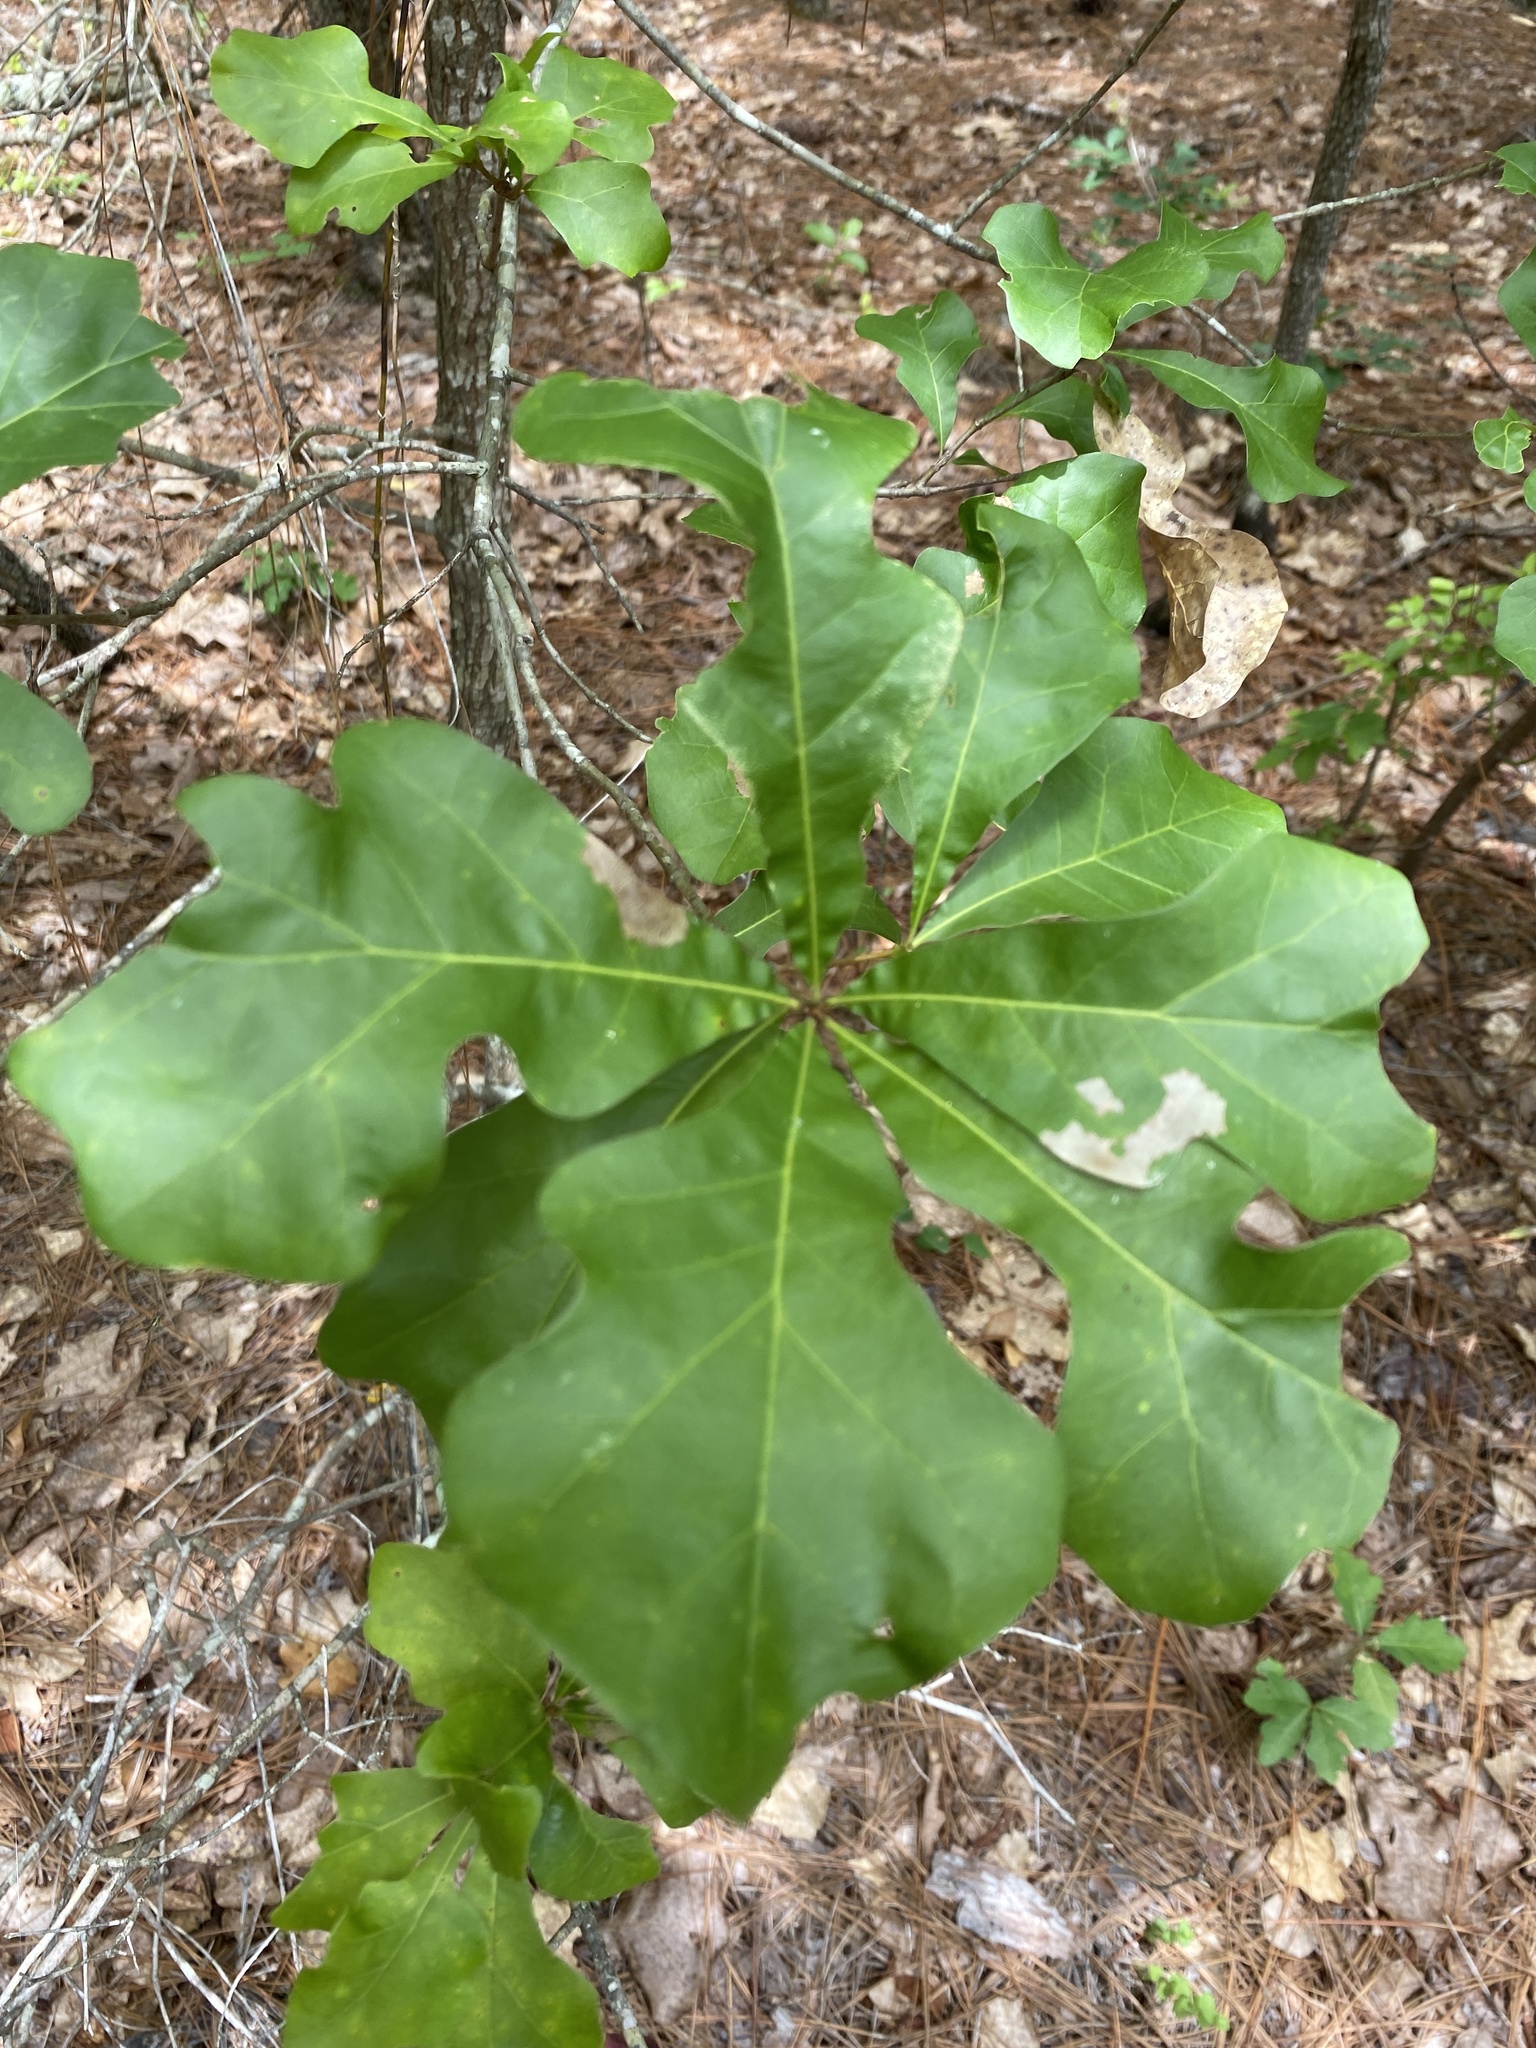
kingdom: Plantae
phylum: Tracheophyta
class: Magnoliopsida
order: Fagales
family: Fagaceae
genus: Quercus
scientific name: Quercus nigra
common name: Water oak
